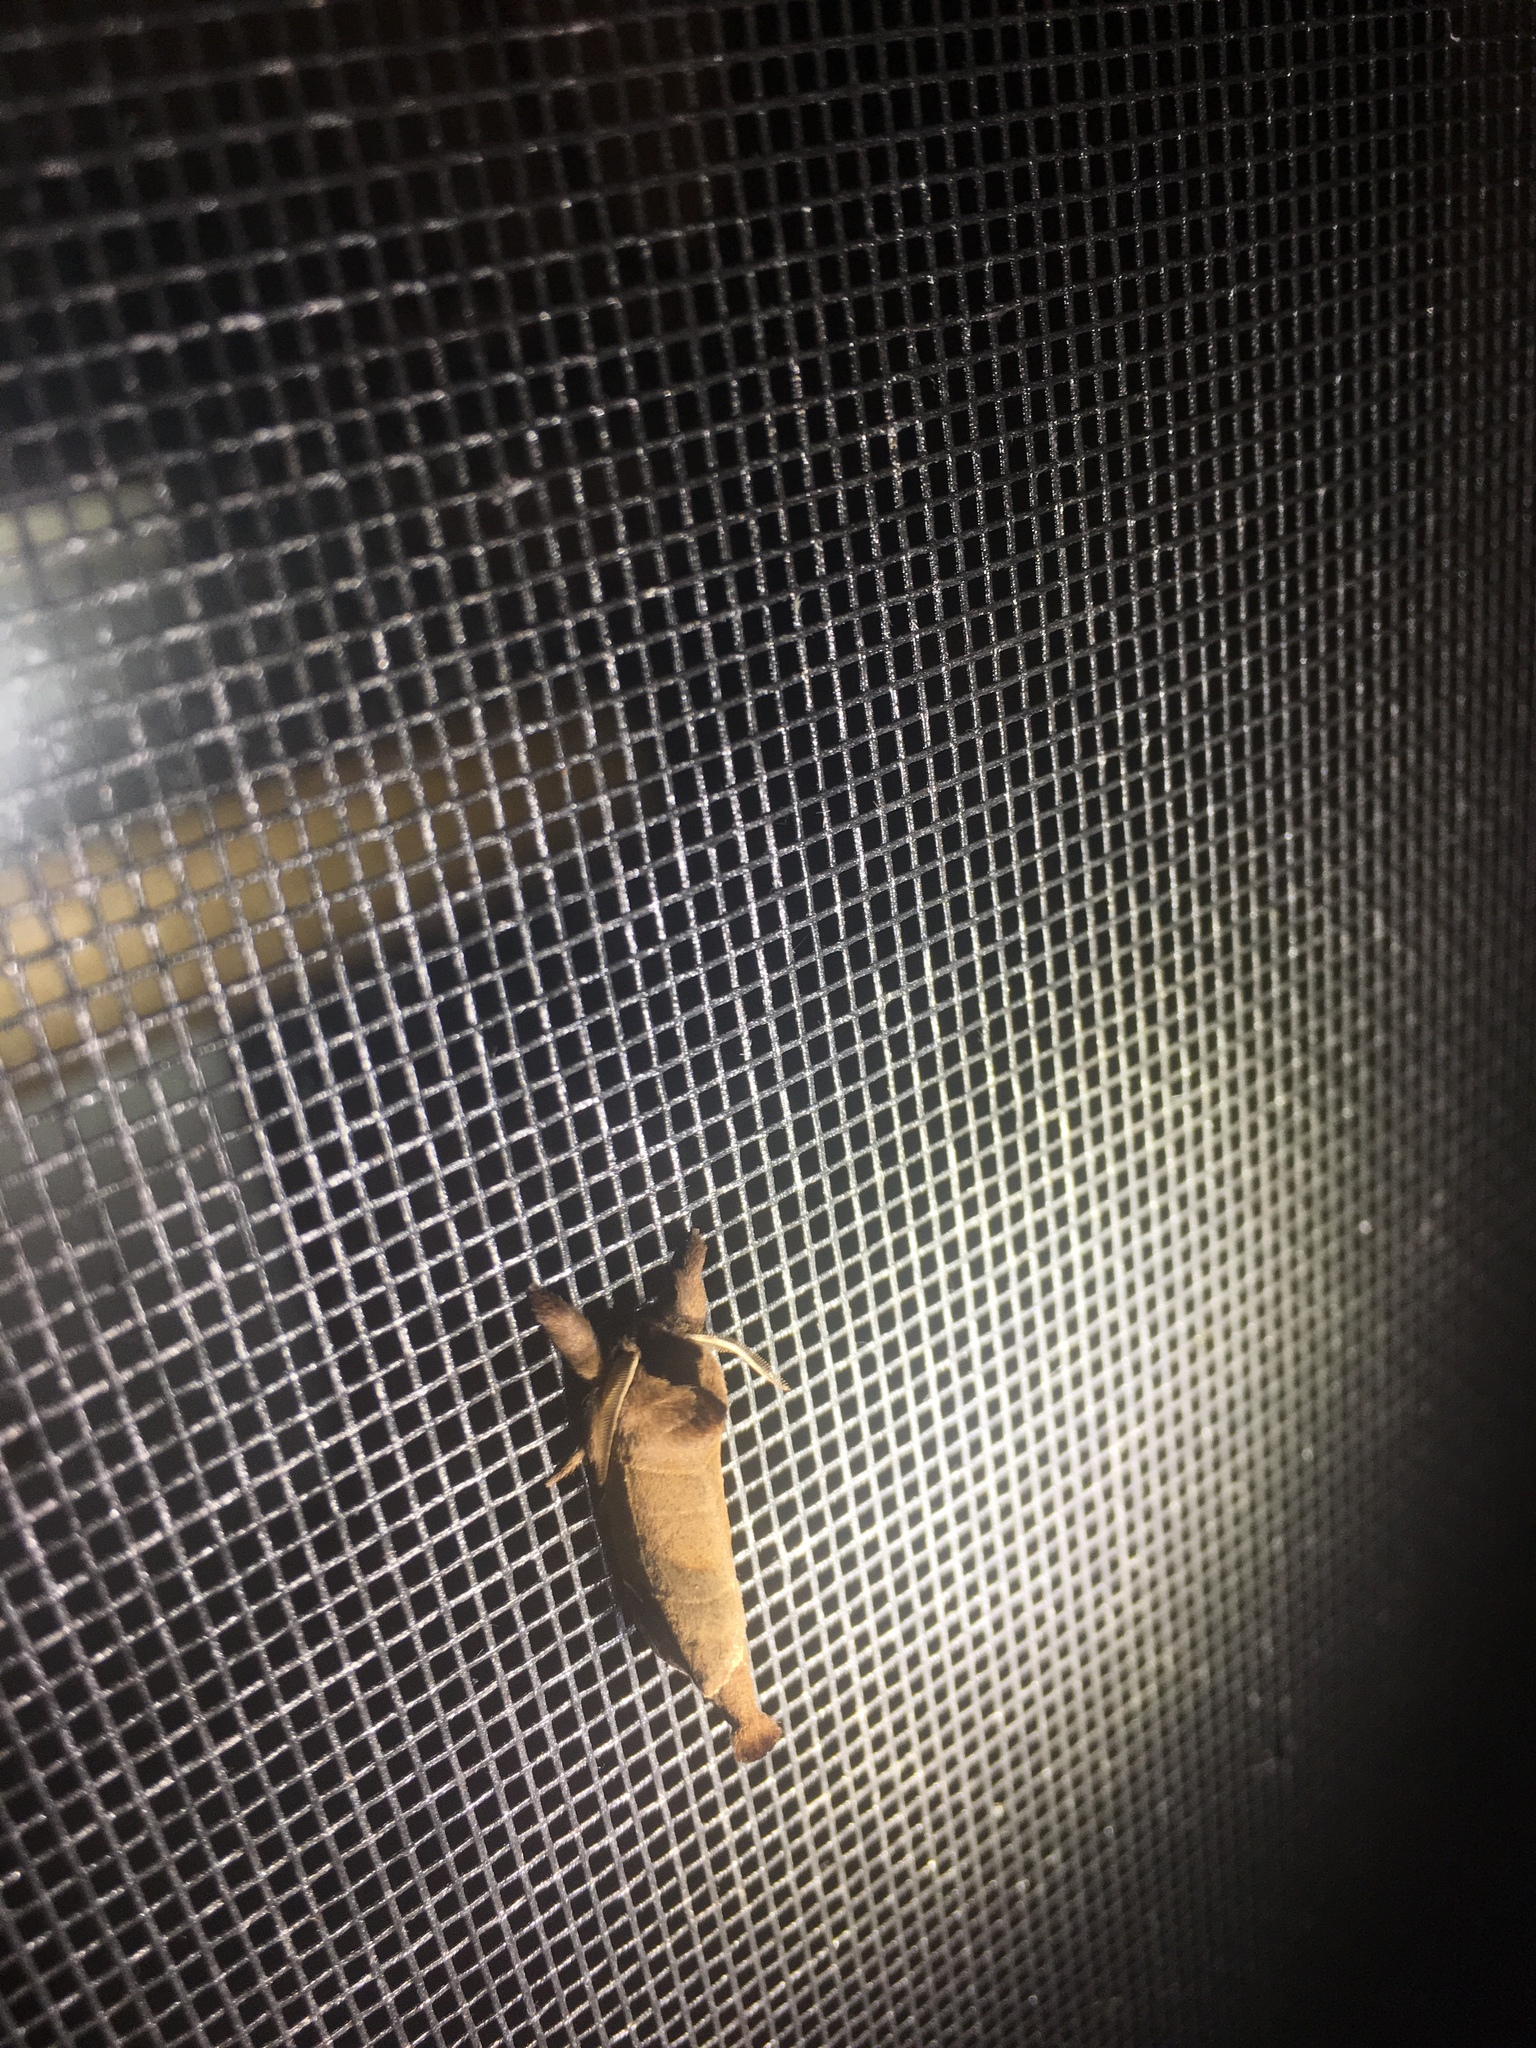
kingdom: Animalia
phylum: Arthropoda
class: Insecta
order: Lepidoptera
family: Notodontidae
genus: Clostera
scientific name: Clostera albosigma
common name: Sigmoid prominent
